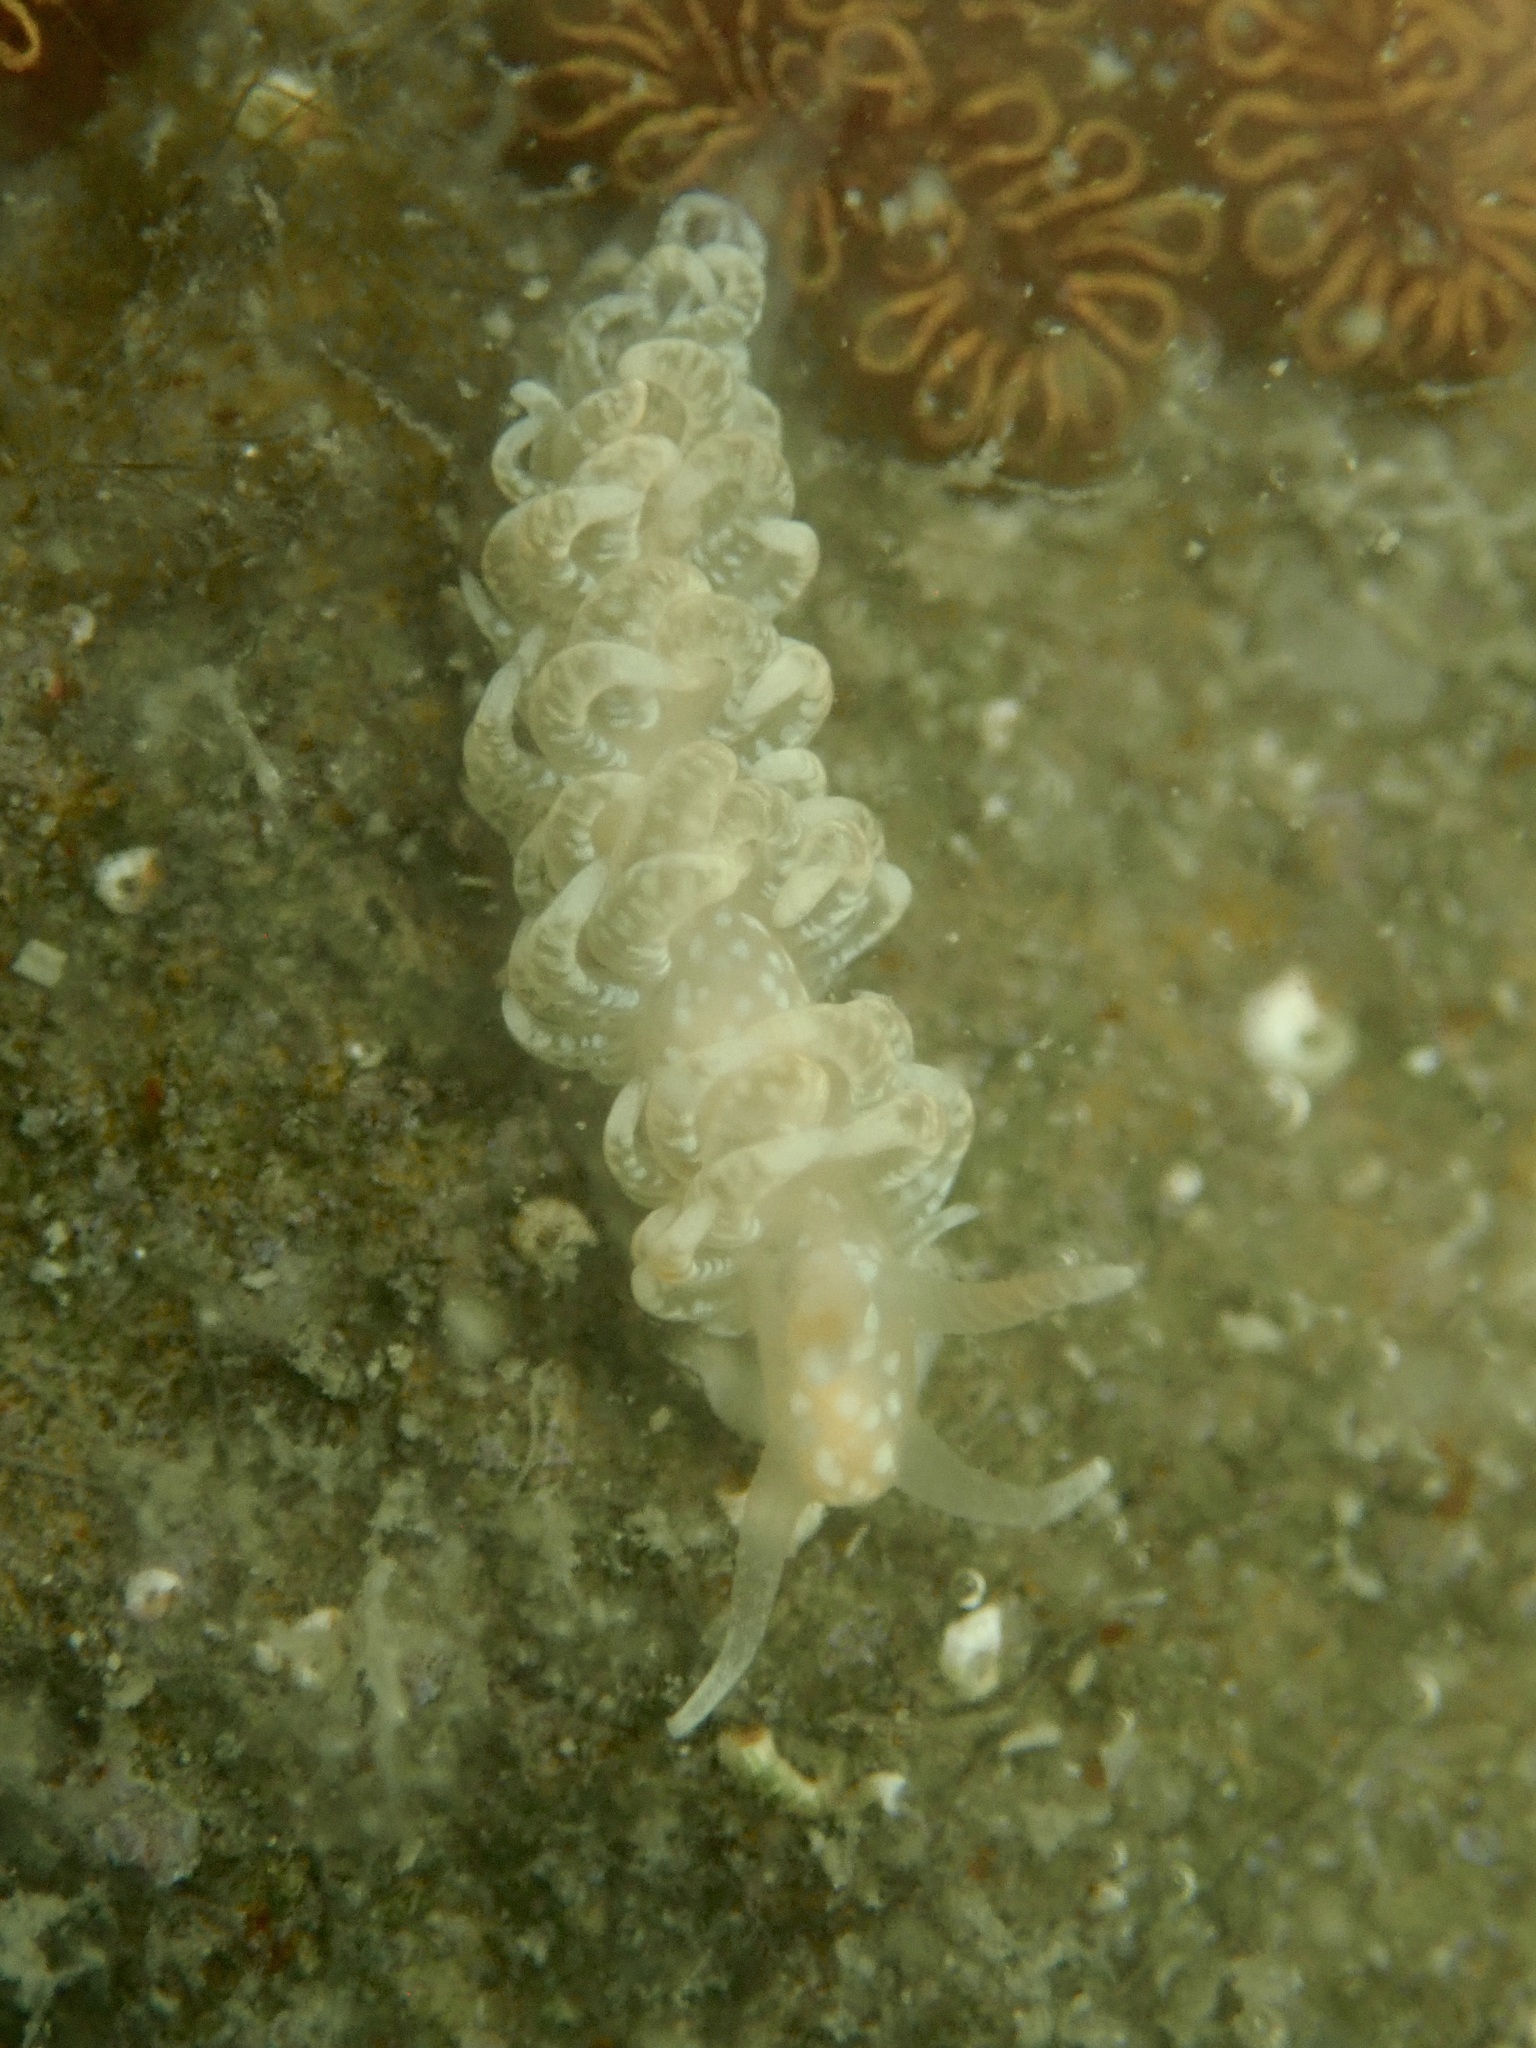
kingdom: Animalia
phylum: Mollusca
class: Gastropoda
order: Nudibranchia
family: Aeolidiidae
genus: Spurilla
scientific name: Spurilla braziliana
